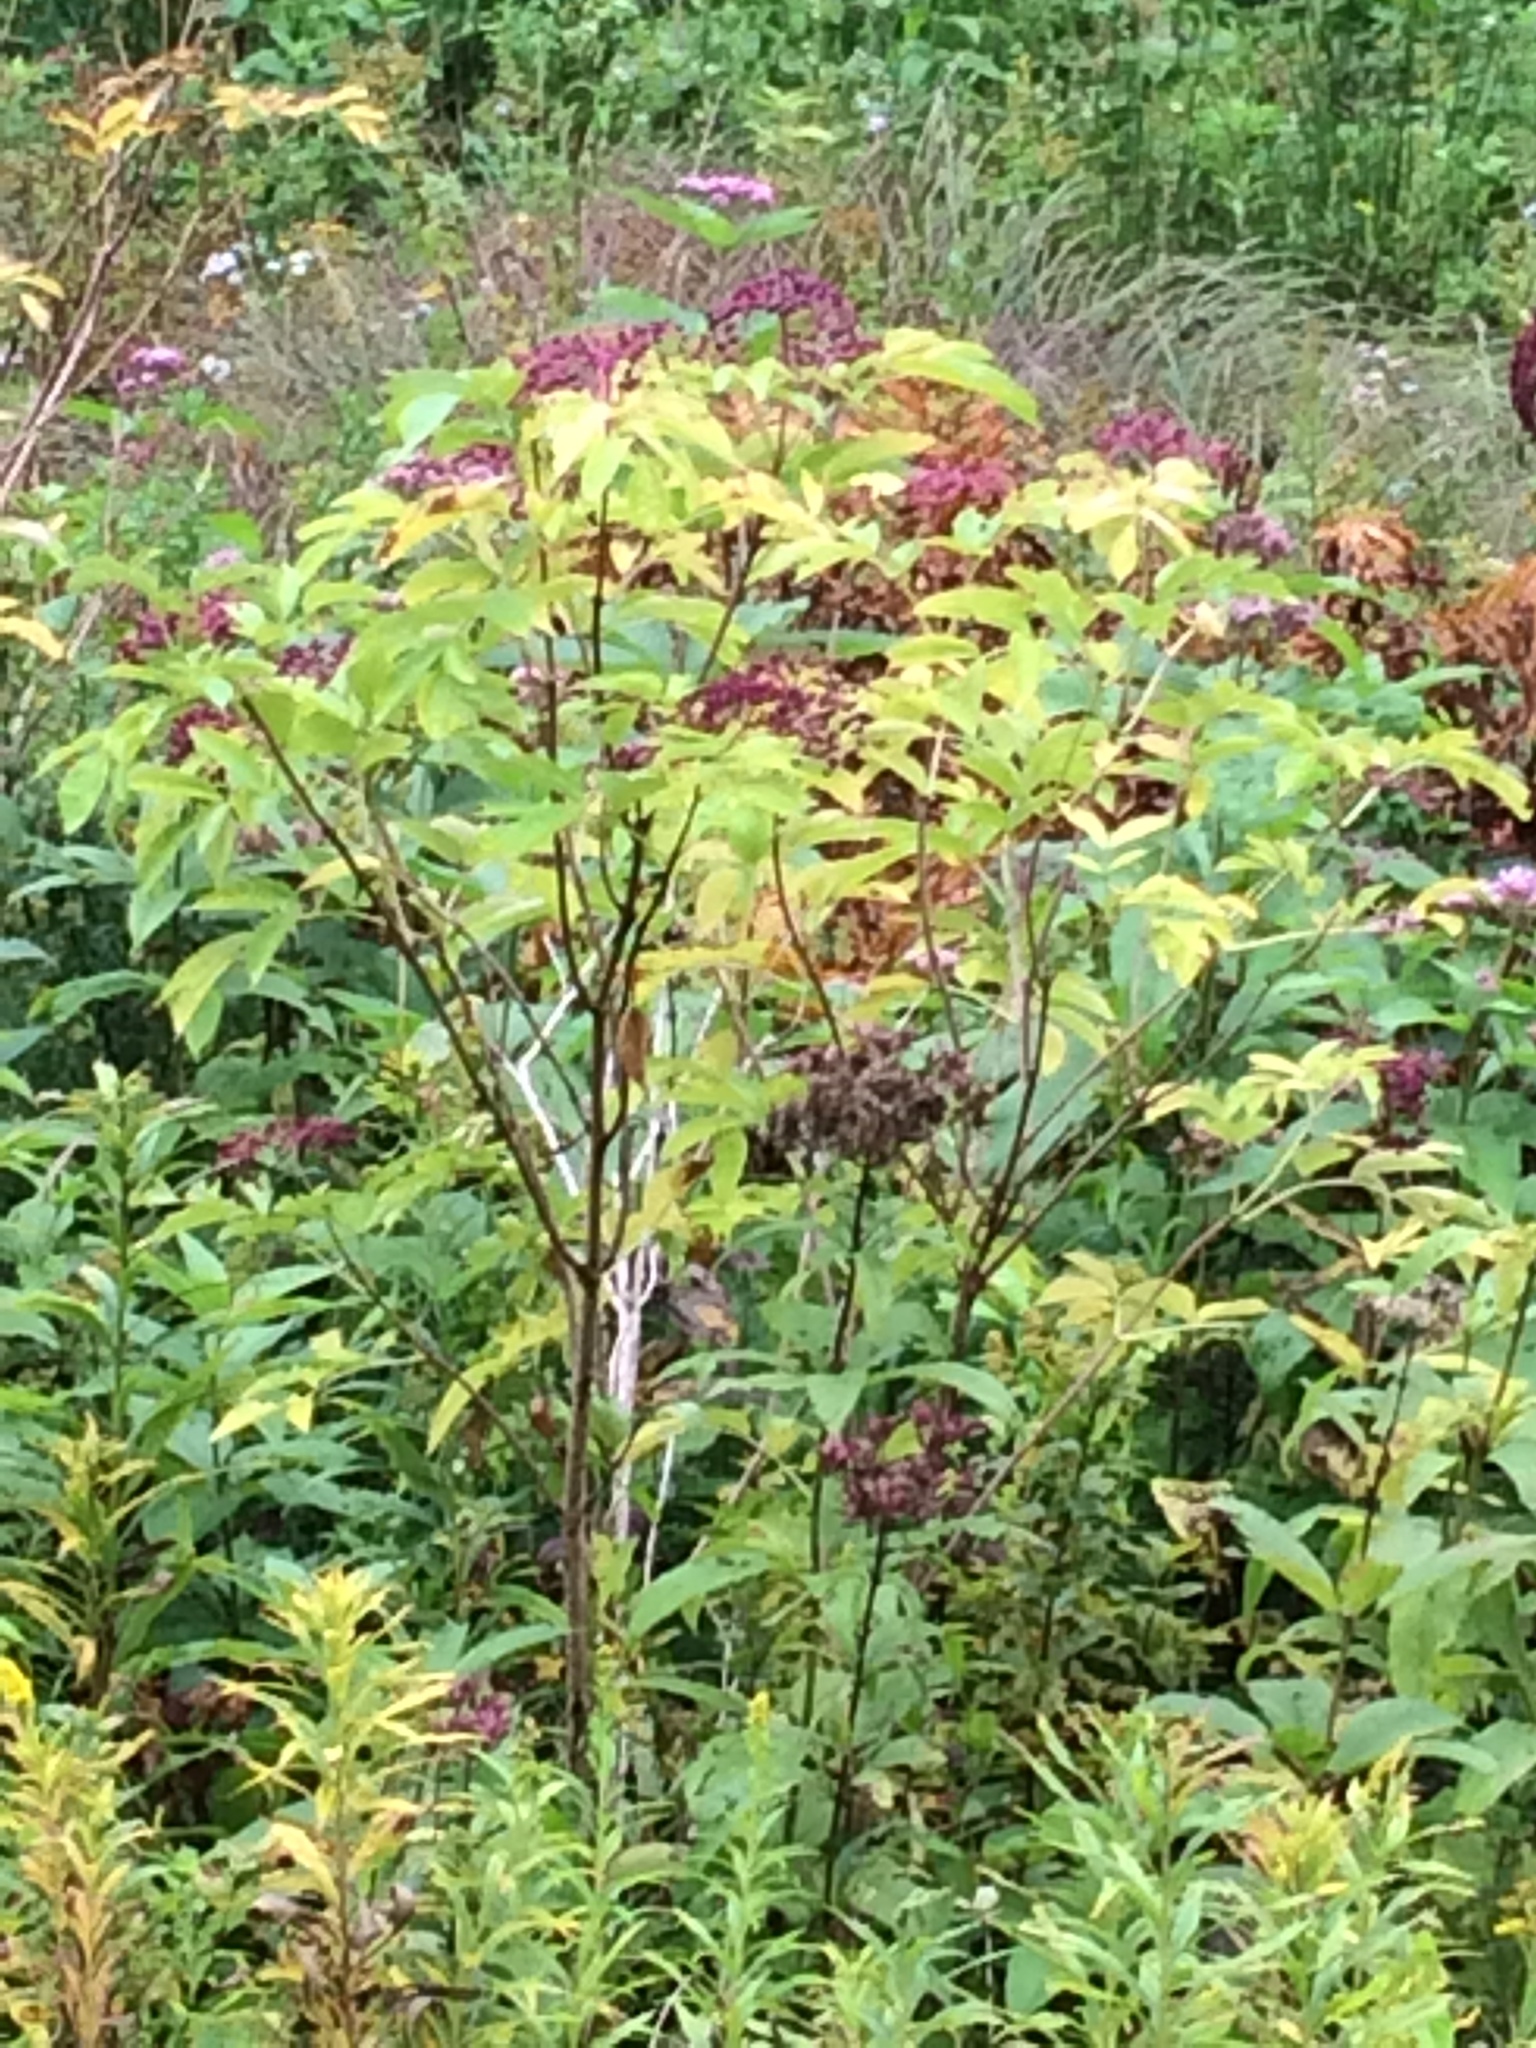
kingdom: Plantae
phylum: Tracheophyta
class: Magnoliopsida
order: Dipsacales
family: Viburnaceae
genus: Sambucus
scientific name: Sambucus canadensis
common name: American elder
